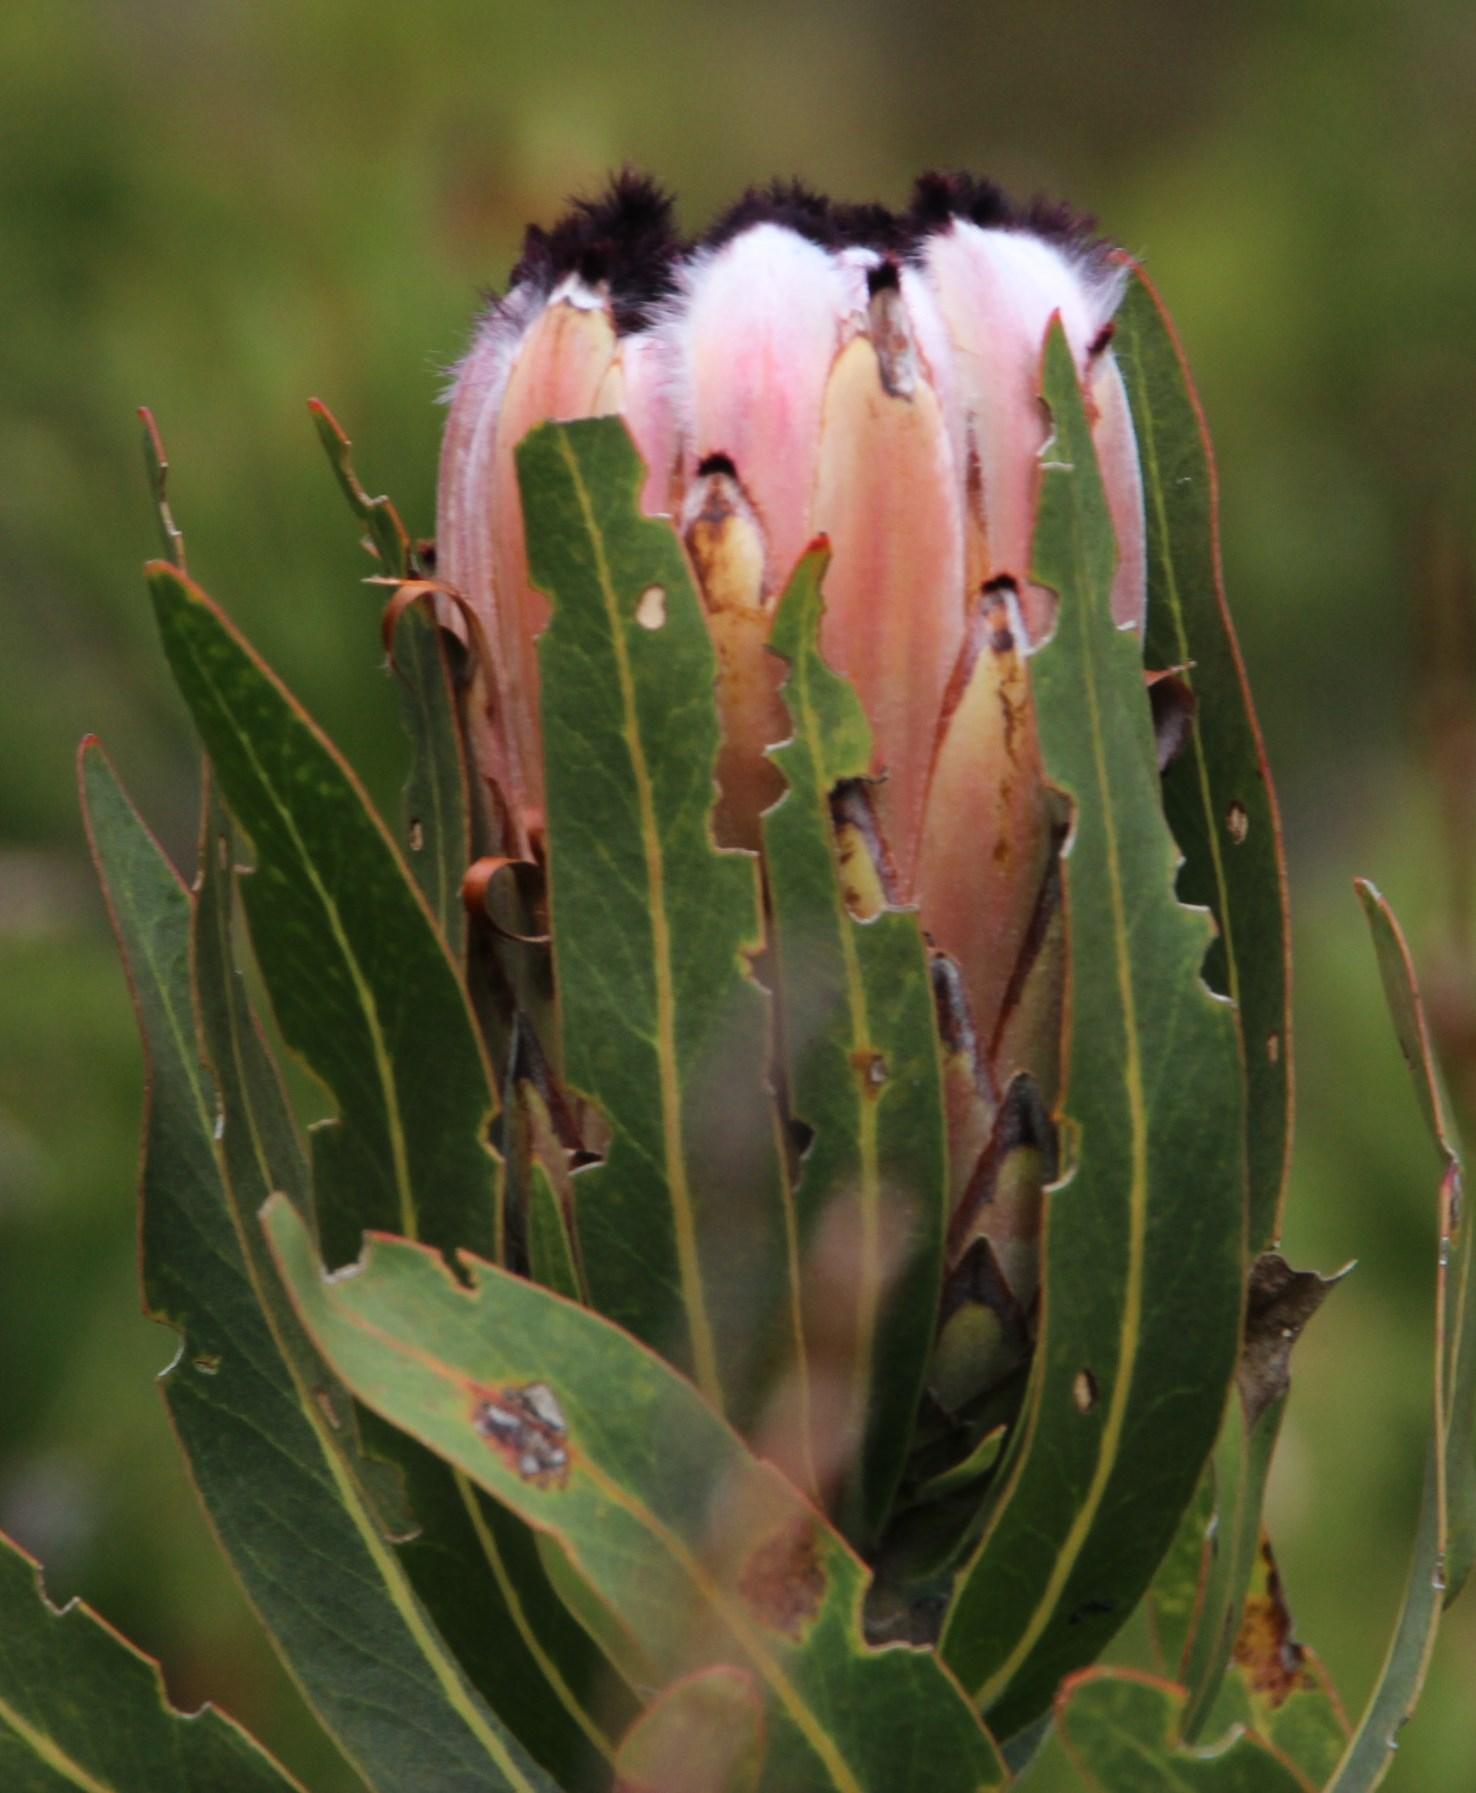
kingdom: Plantae
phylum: Tracheophyta
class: Magnoliopsida
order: Proteales
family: Proteaceae
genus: Protea
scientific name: Protea neriifolia
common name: Blue sugarbush
